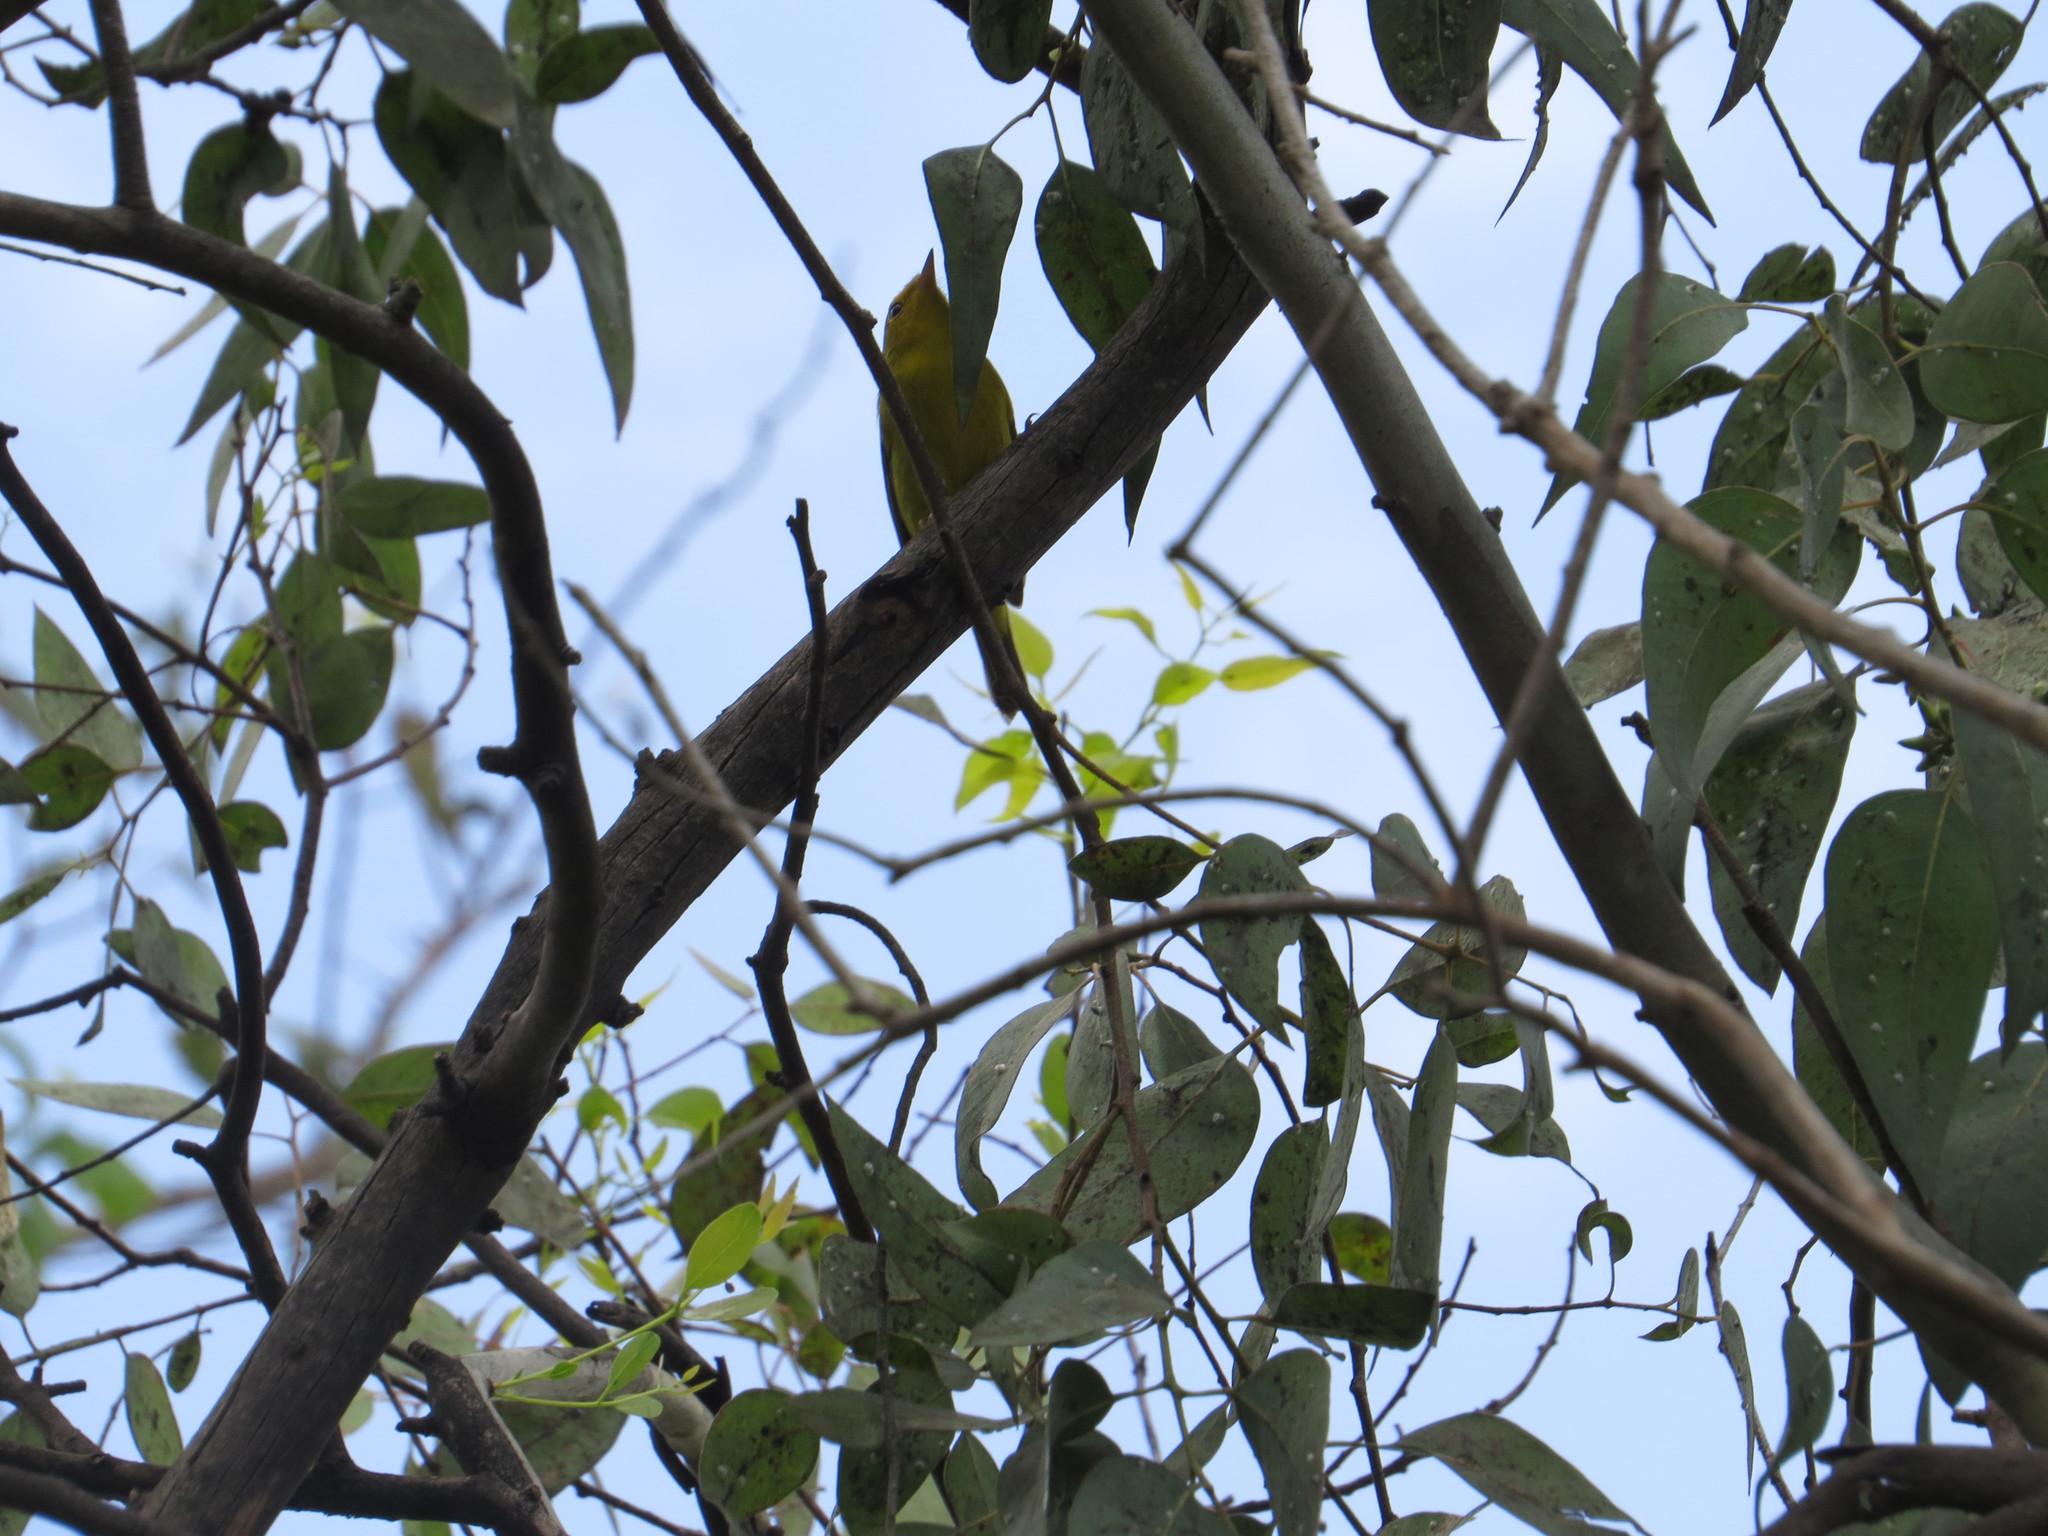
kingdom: Animalia
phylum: Chordata
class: Aves
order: Passeriformes
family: Parulidae
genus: Cardellina
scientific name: Cardellina pusilla
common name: Wilson's warbler
